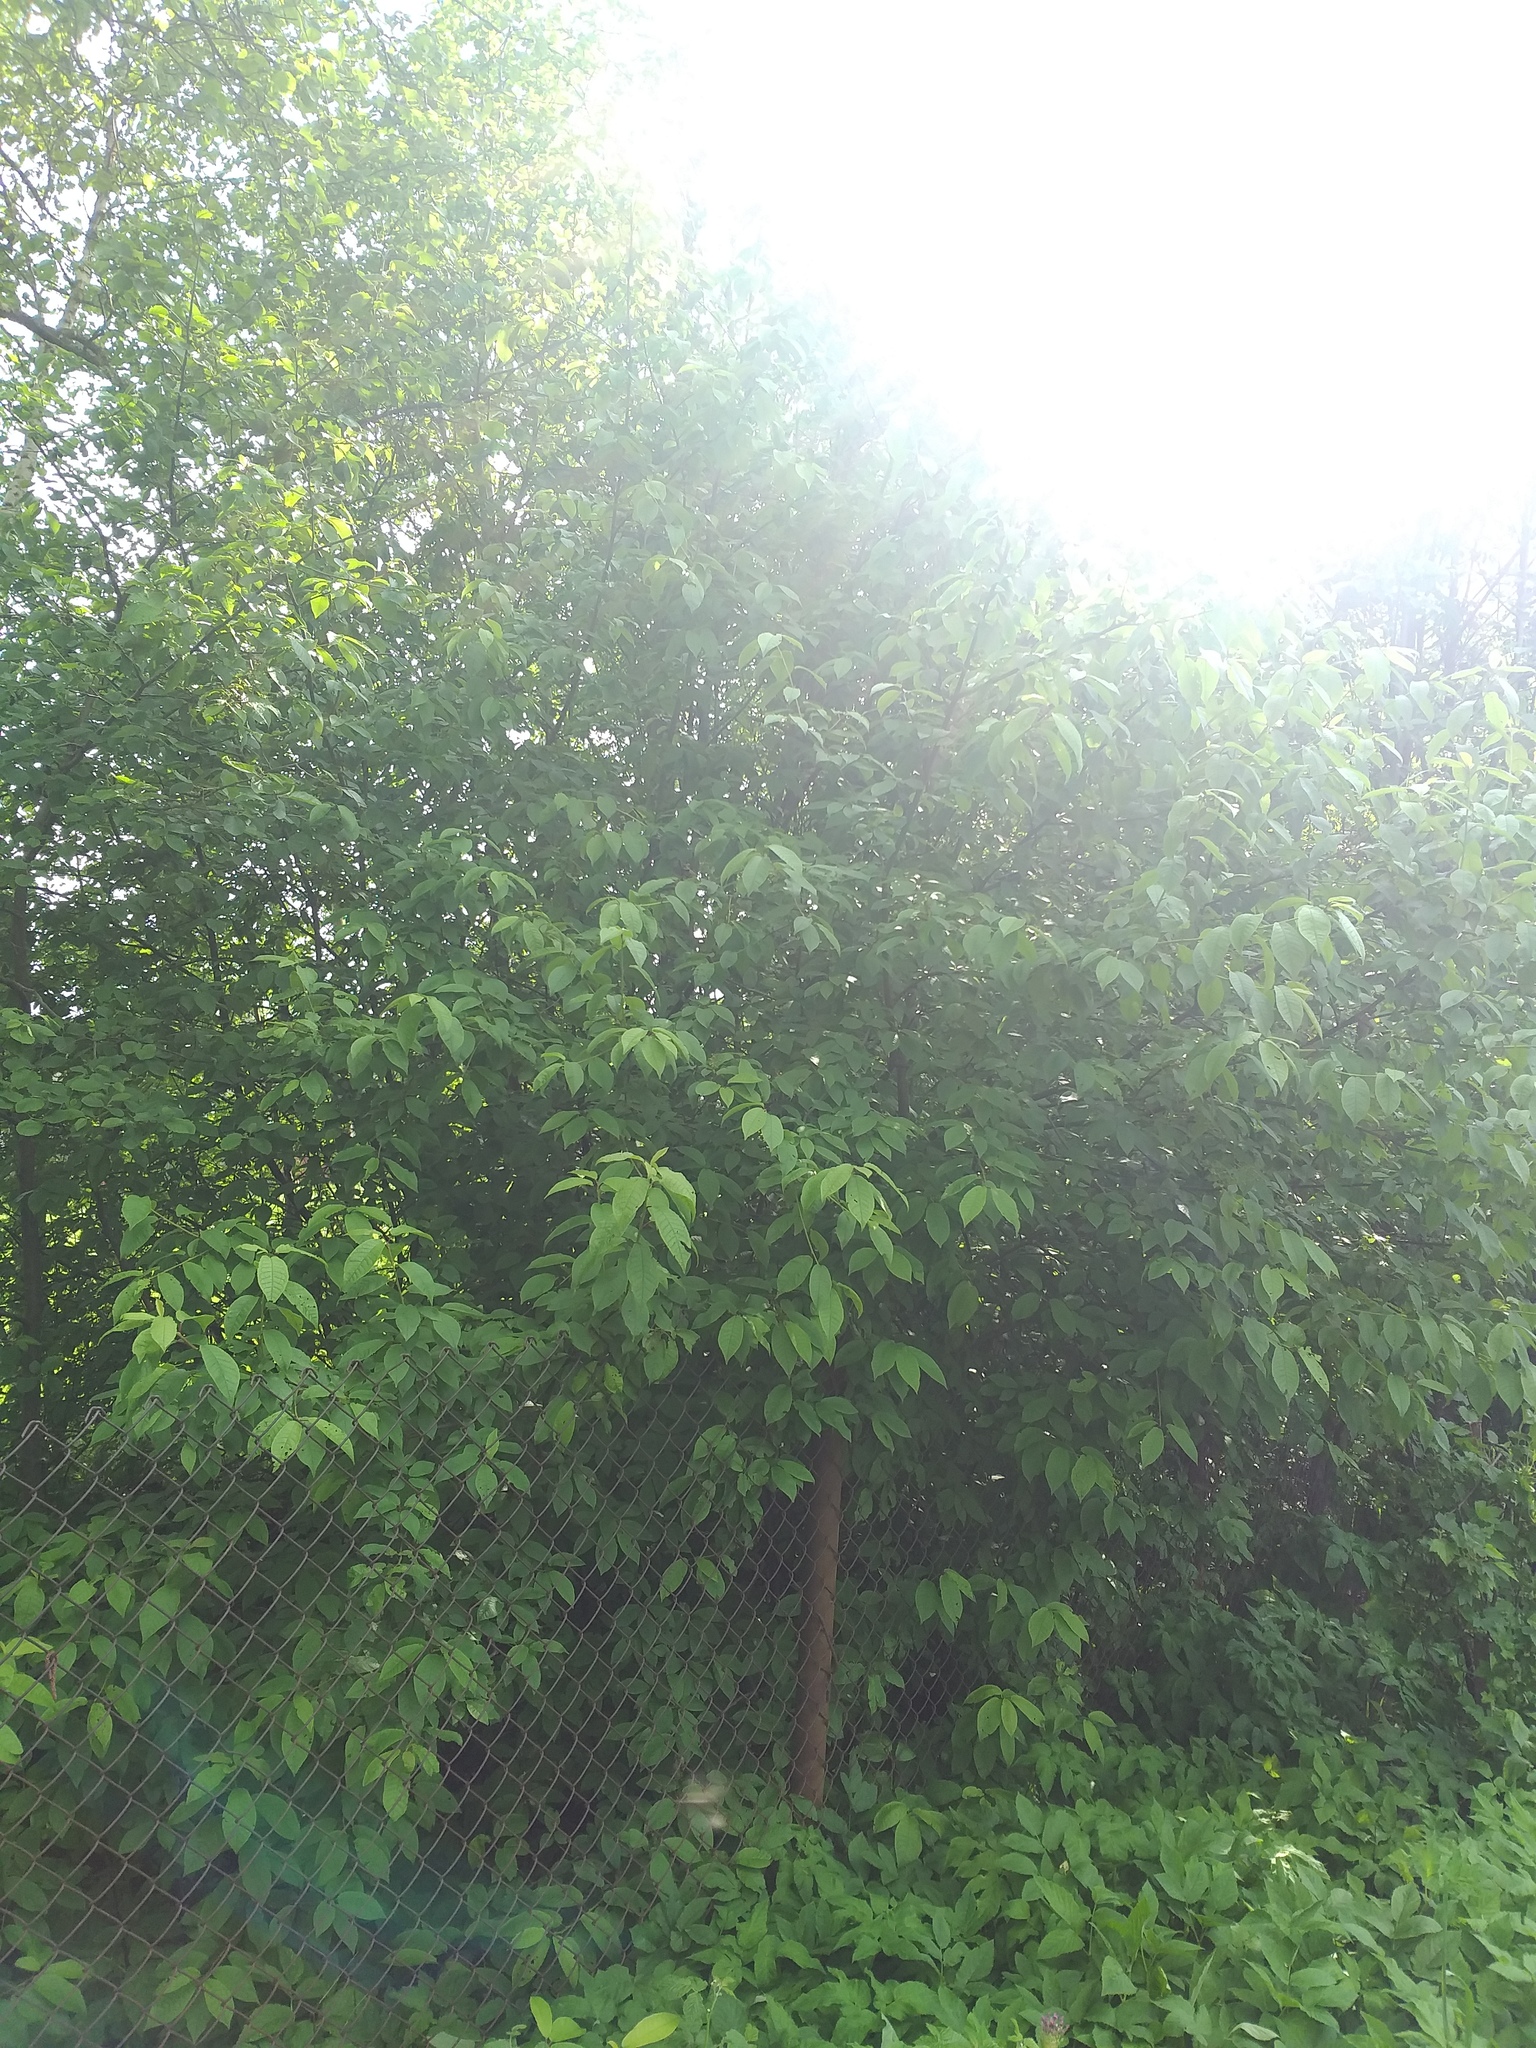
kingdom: Plantae
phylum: Tracheophyta
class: Magnoliopsida
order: Rosales
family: Rosaceae
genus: Prunus
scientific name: Prunus padus
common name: Bird cherry
